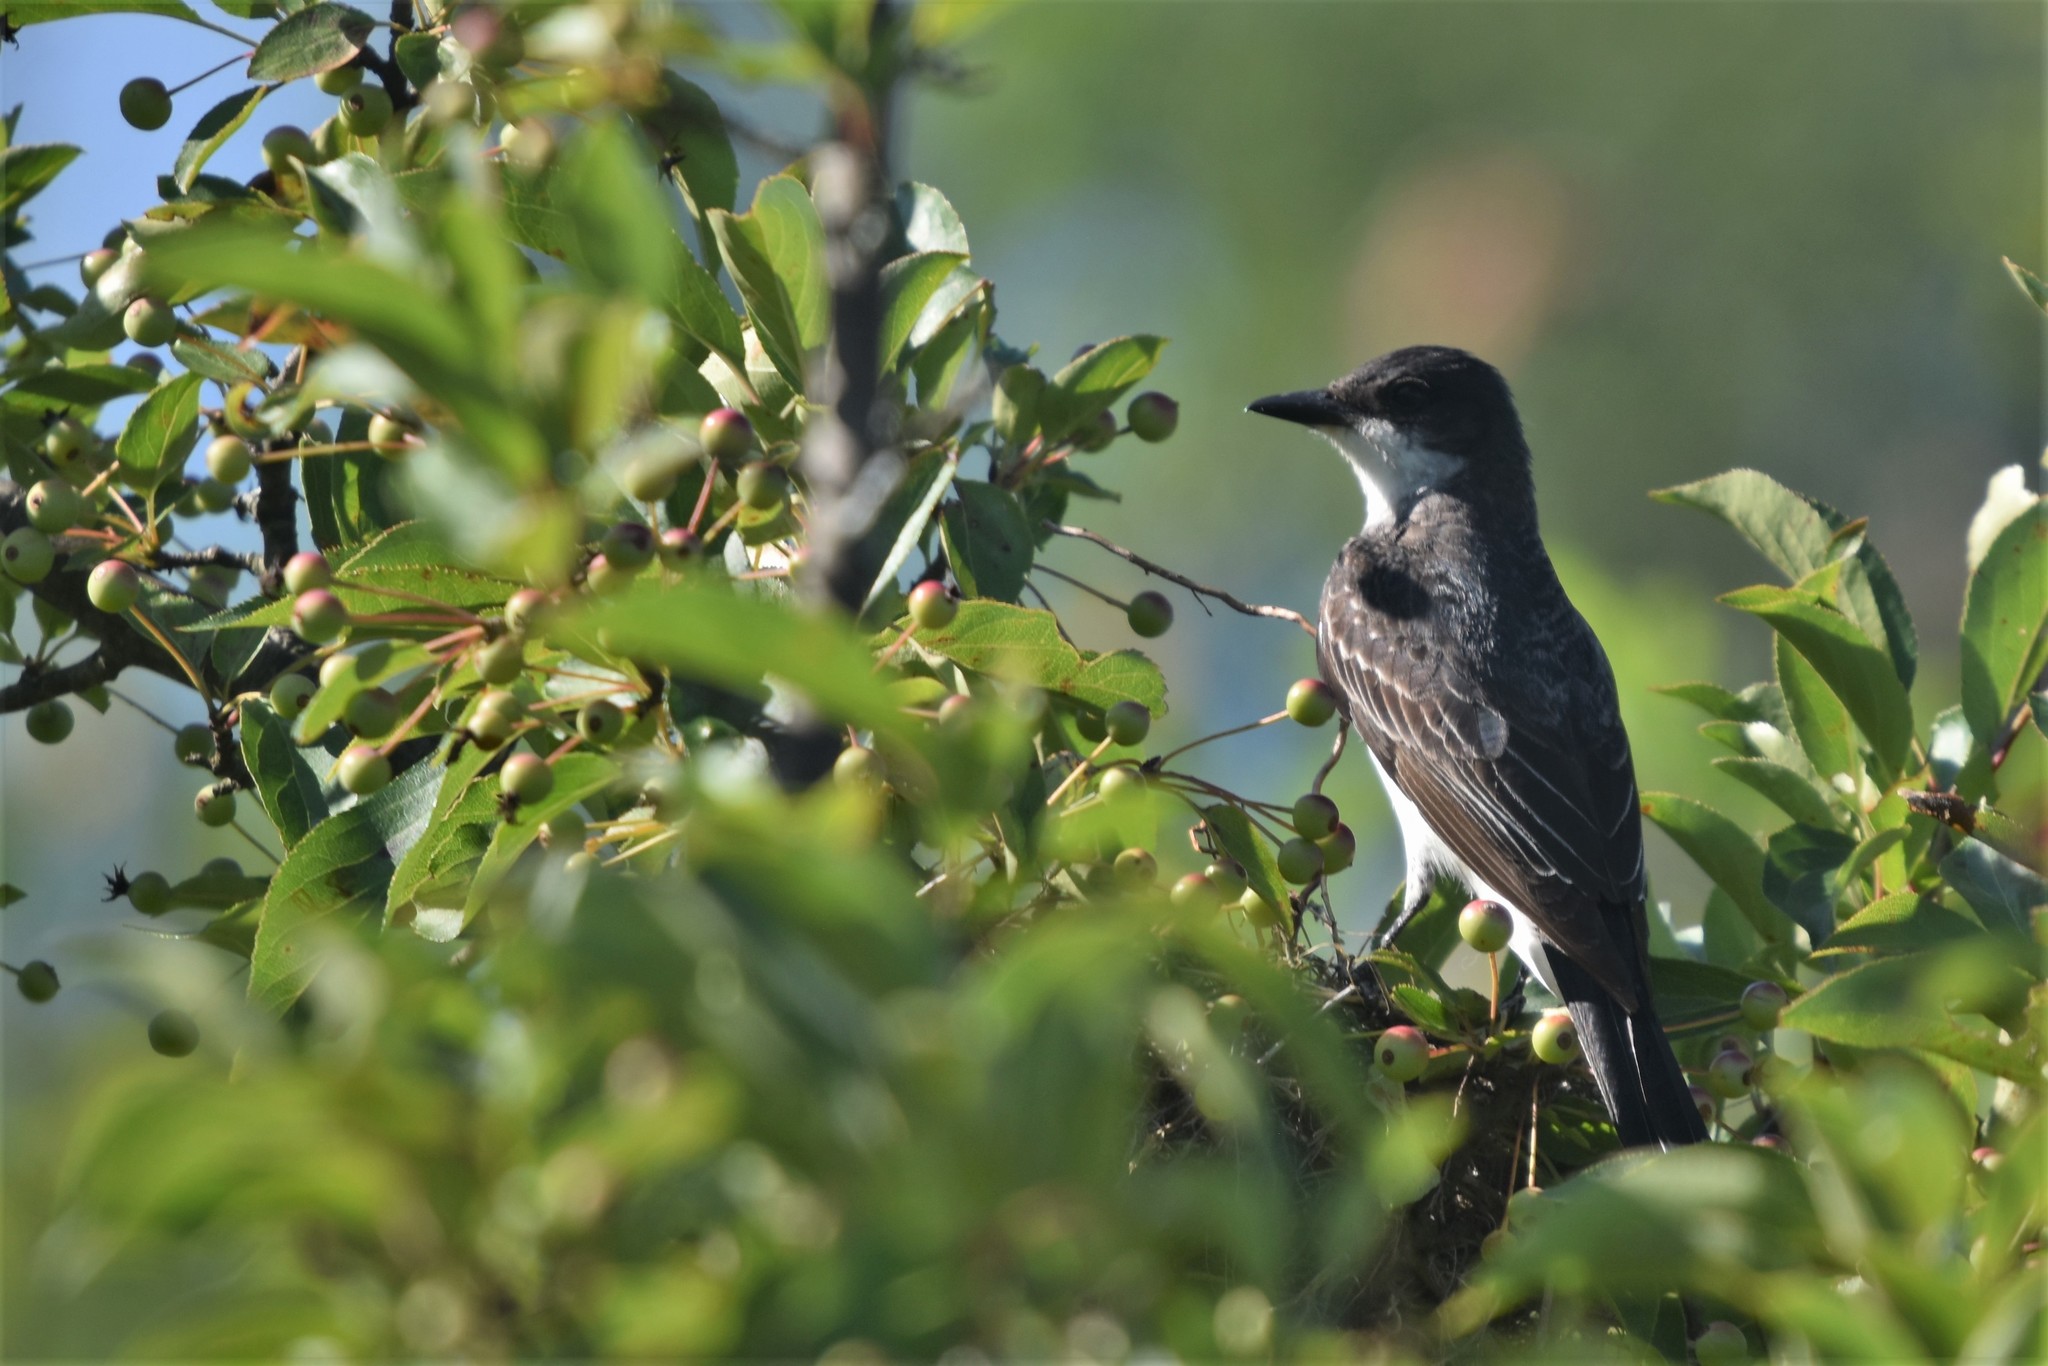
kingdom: Animalia
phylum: Chordata
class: Aves
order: Passeriformes
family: Tyrannidae
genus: Tyrannus
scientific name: Tyrannus tyrannus
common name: Eastern kingbird
